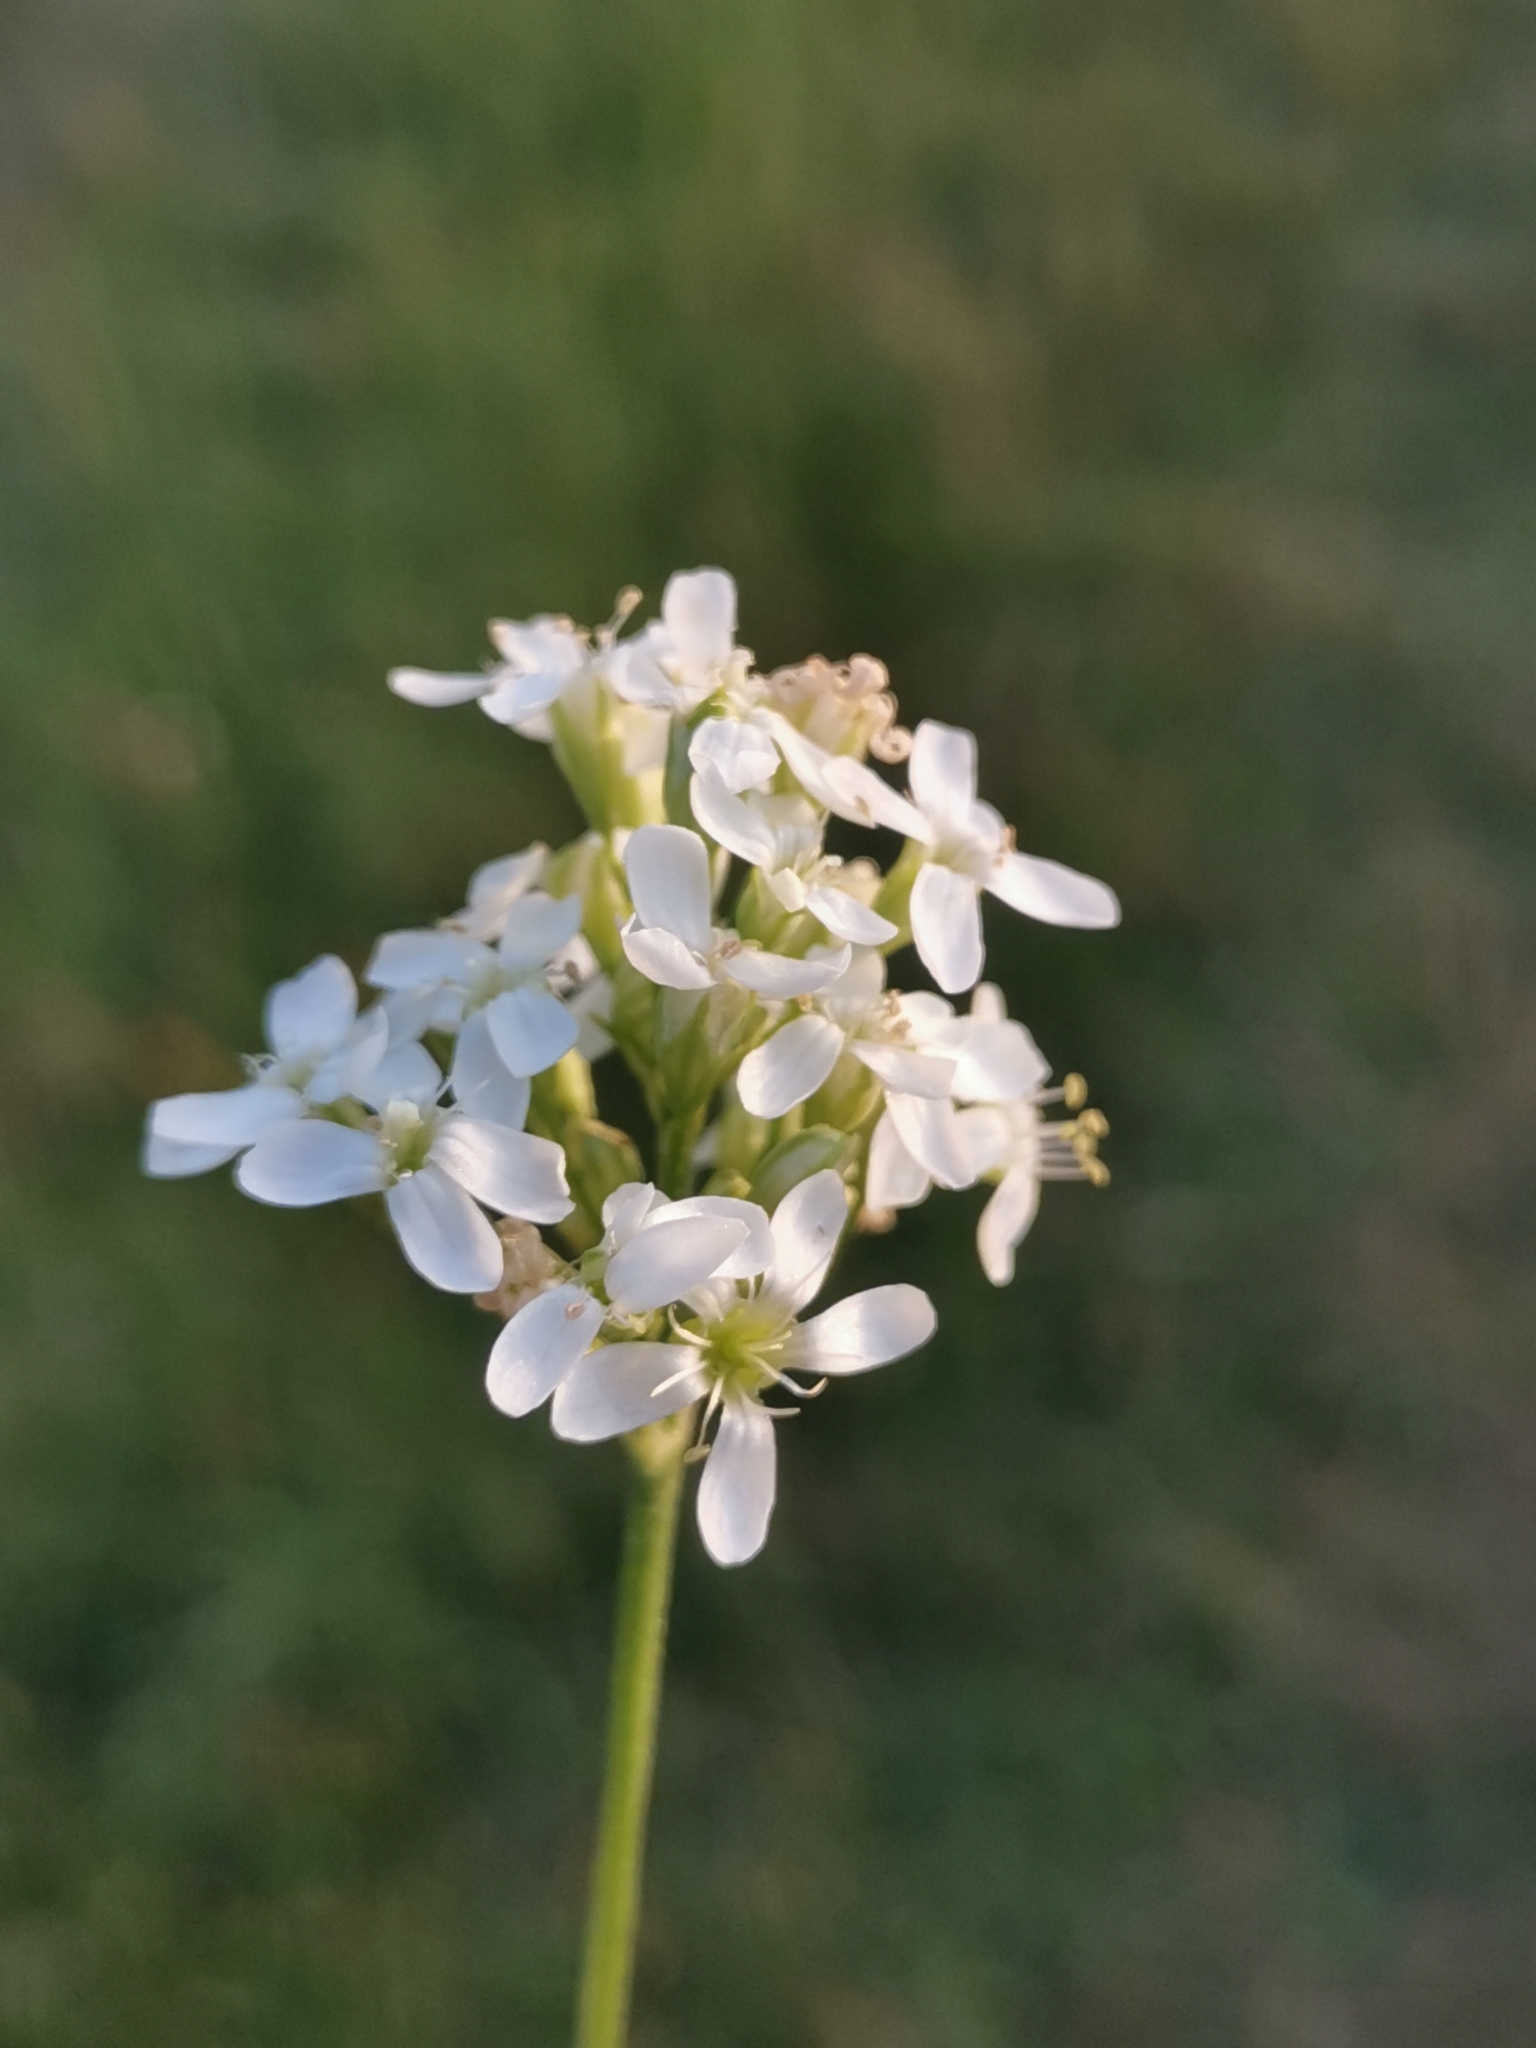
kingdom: Plantae
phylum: Tracheophyta
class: Magnoliopsida
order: Caryophyllales
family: Caryophyllaceae
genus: Silene
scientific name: Silene sendtneri
